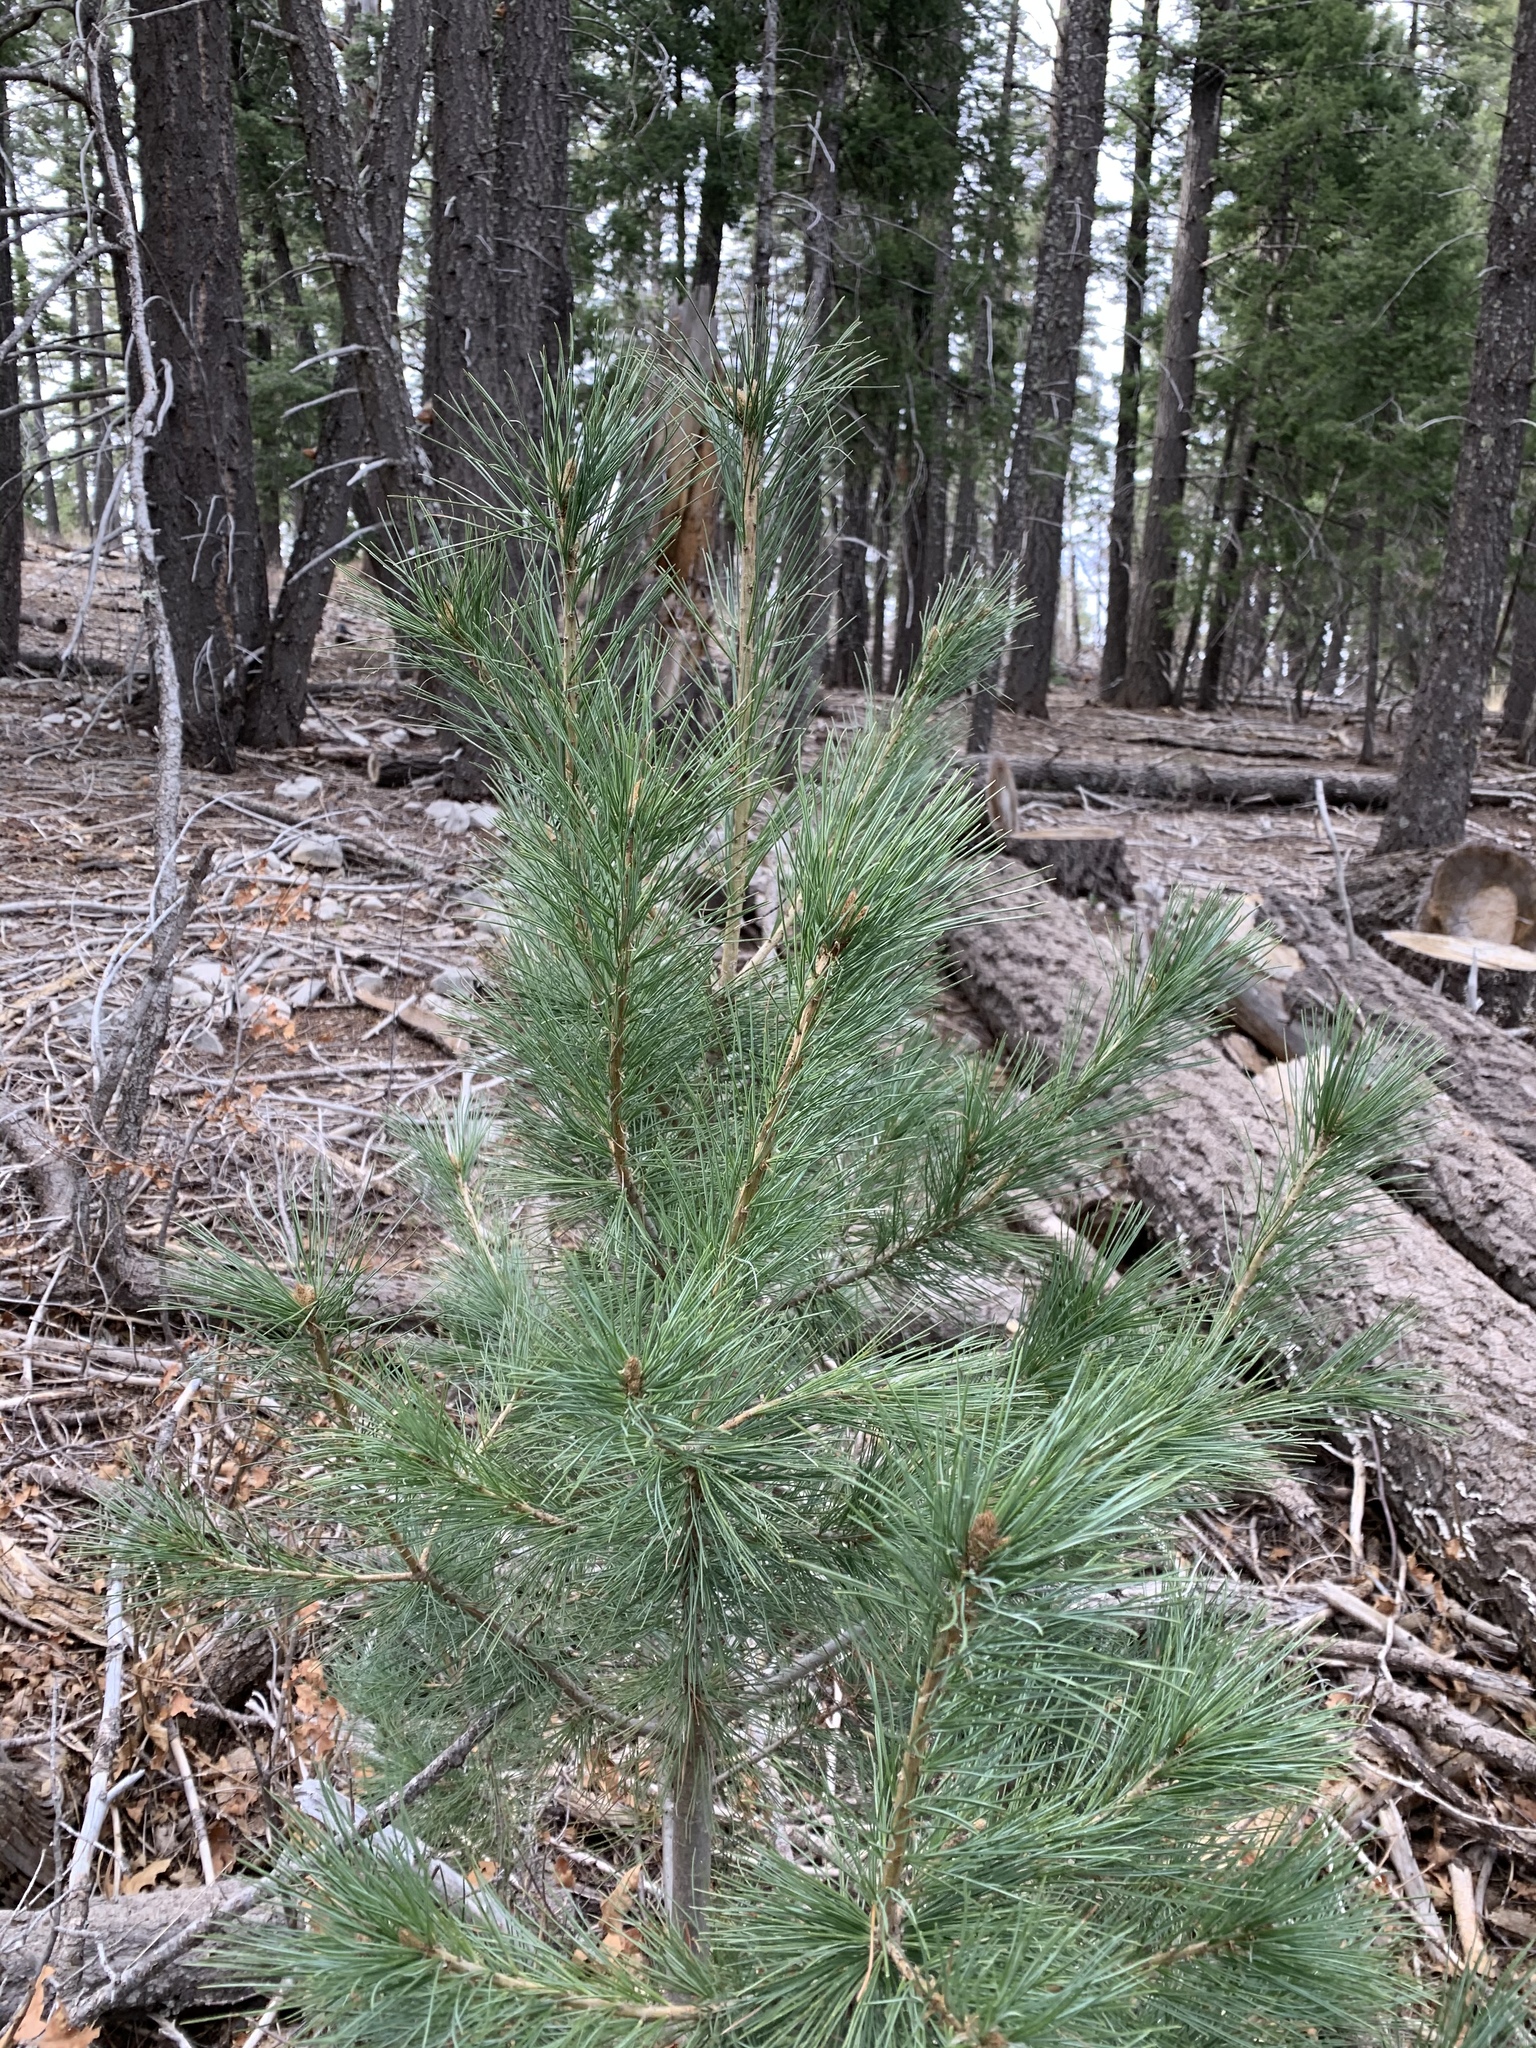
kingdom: Plantae
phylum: Tracheophyta
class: Pinopsida
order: Pinales
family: Pinaceae
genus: Pinus
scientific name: Pinus strobiformis
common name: Southwestern white pine
